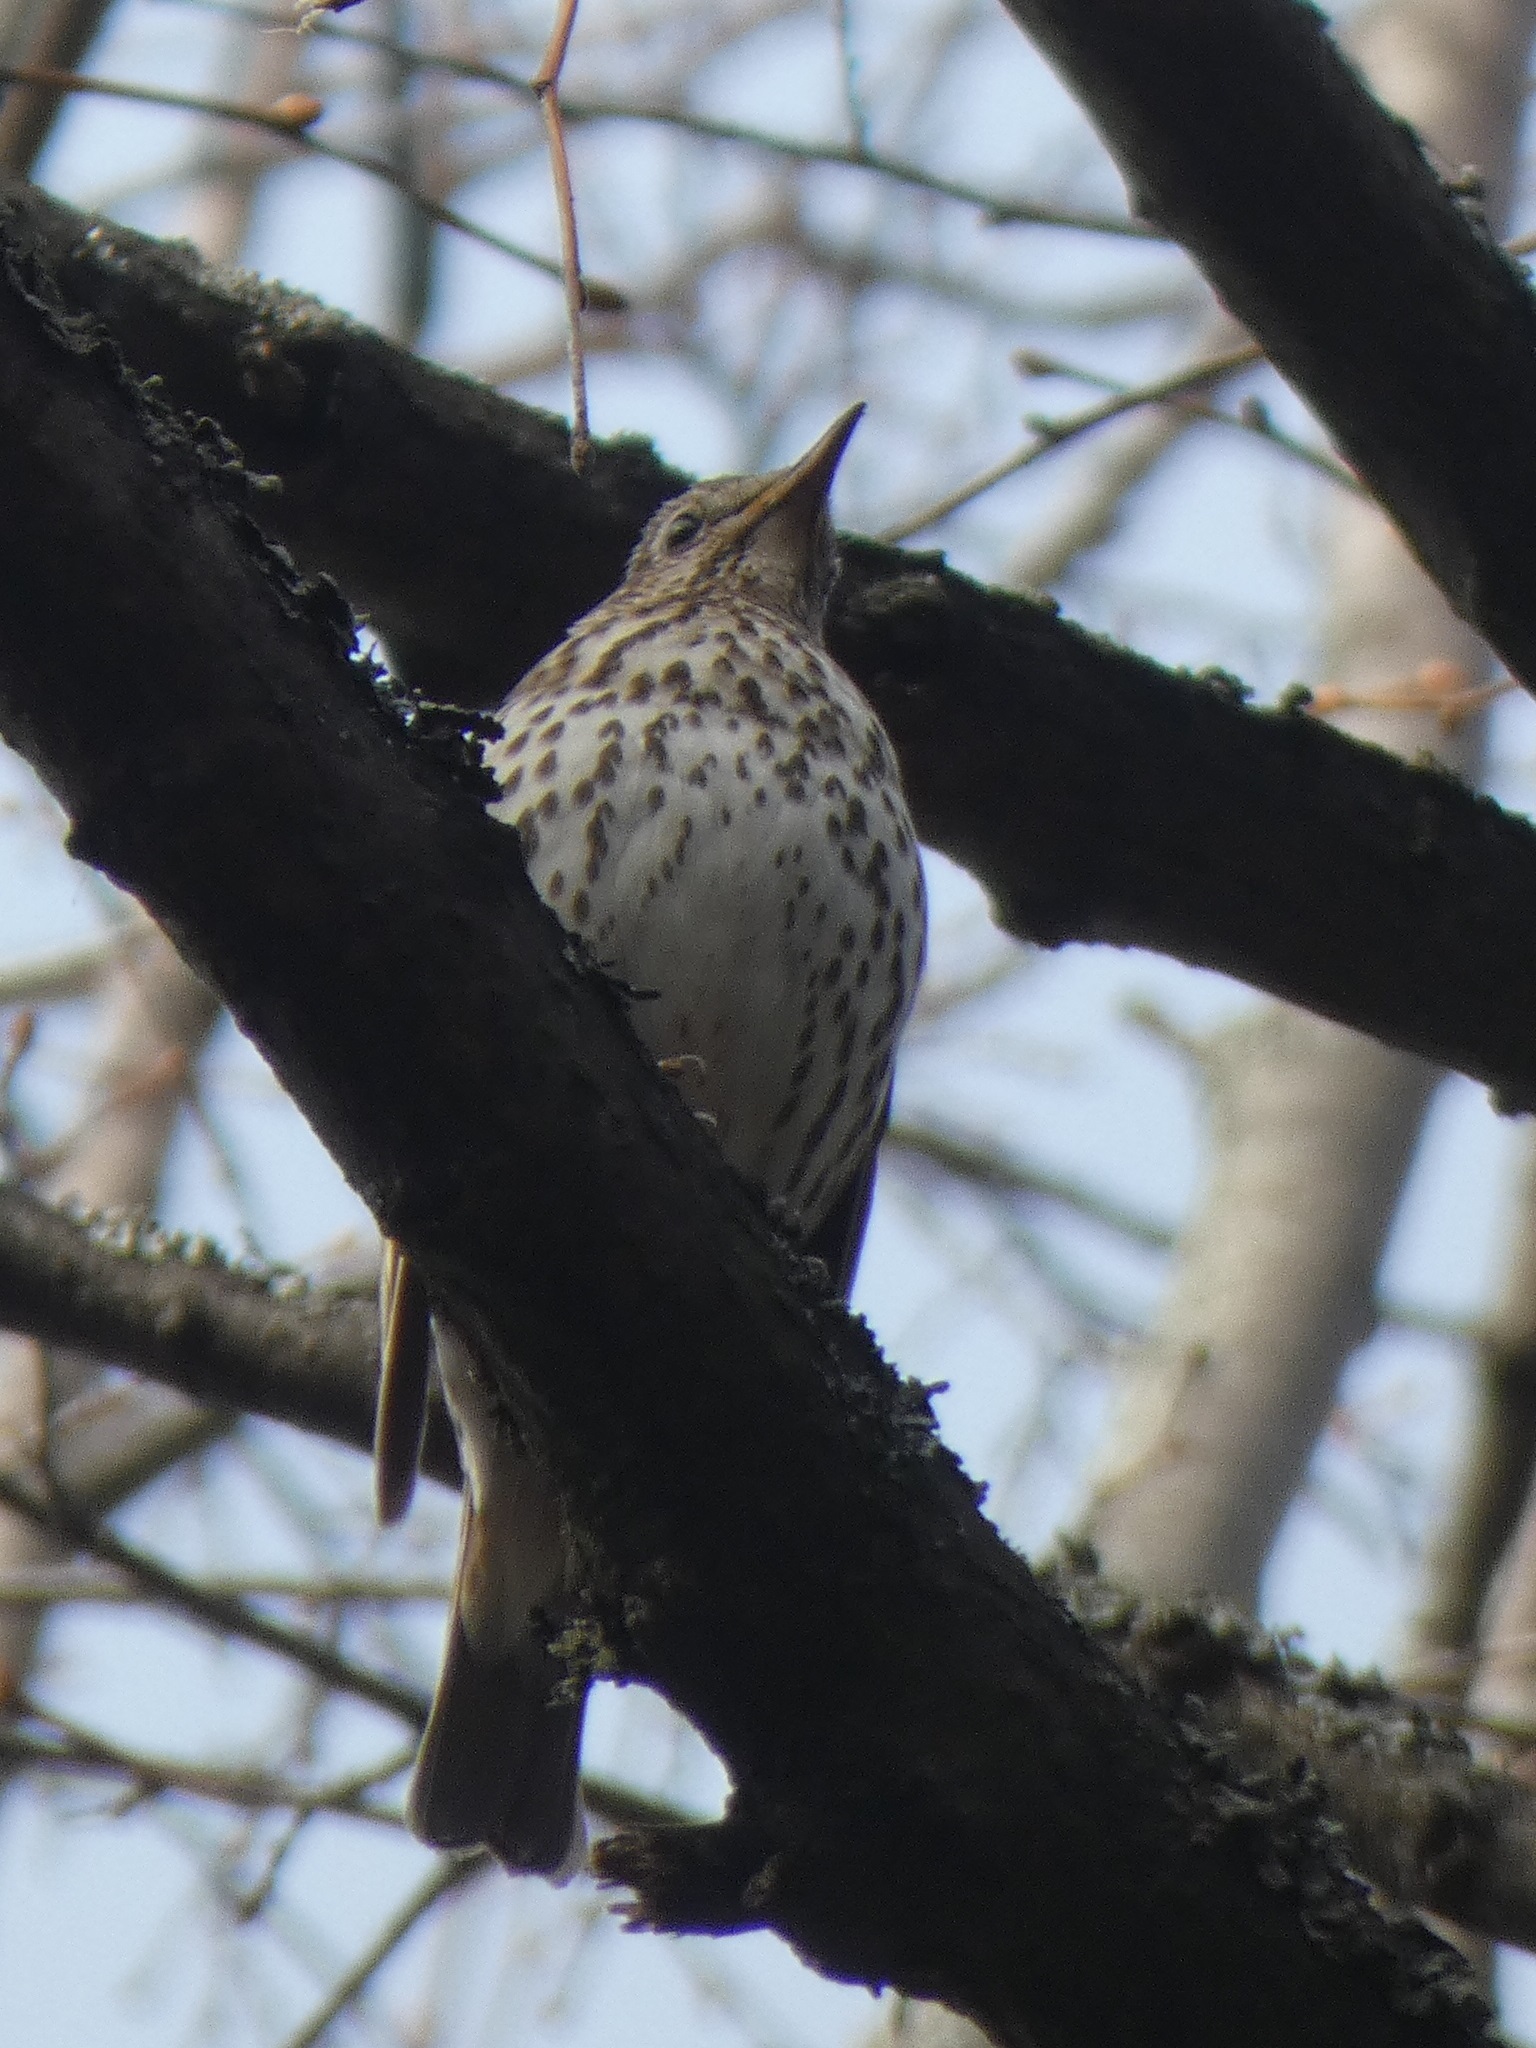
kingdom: Animalia
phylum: Chordata
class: Aves
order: Passeriformes
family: Turdidae
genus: Turdus
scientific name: Turdus philomelos
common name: Song thrush
